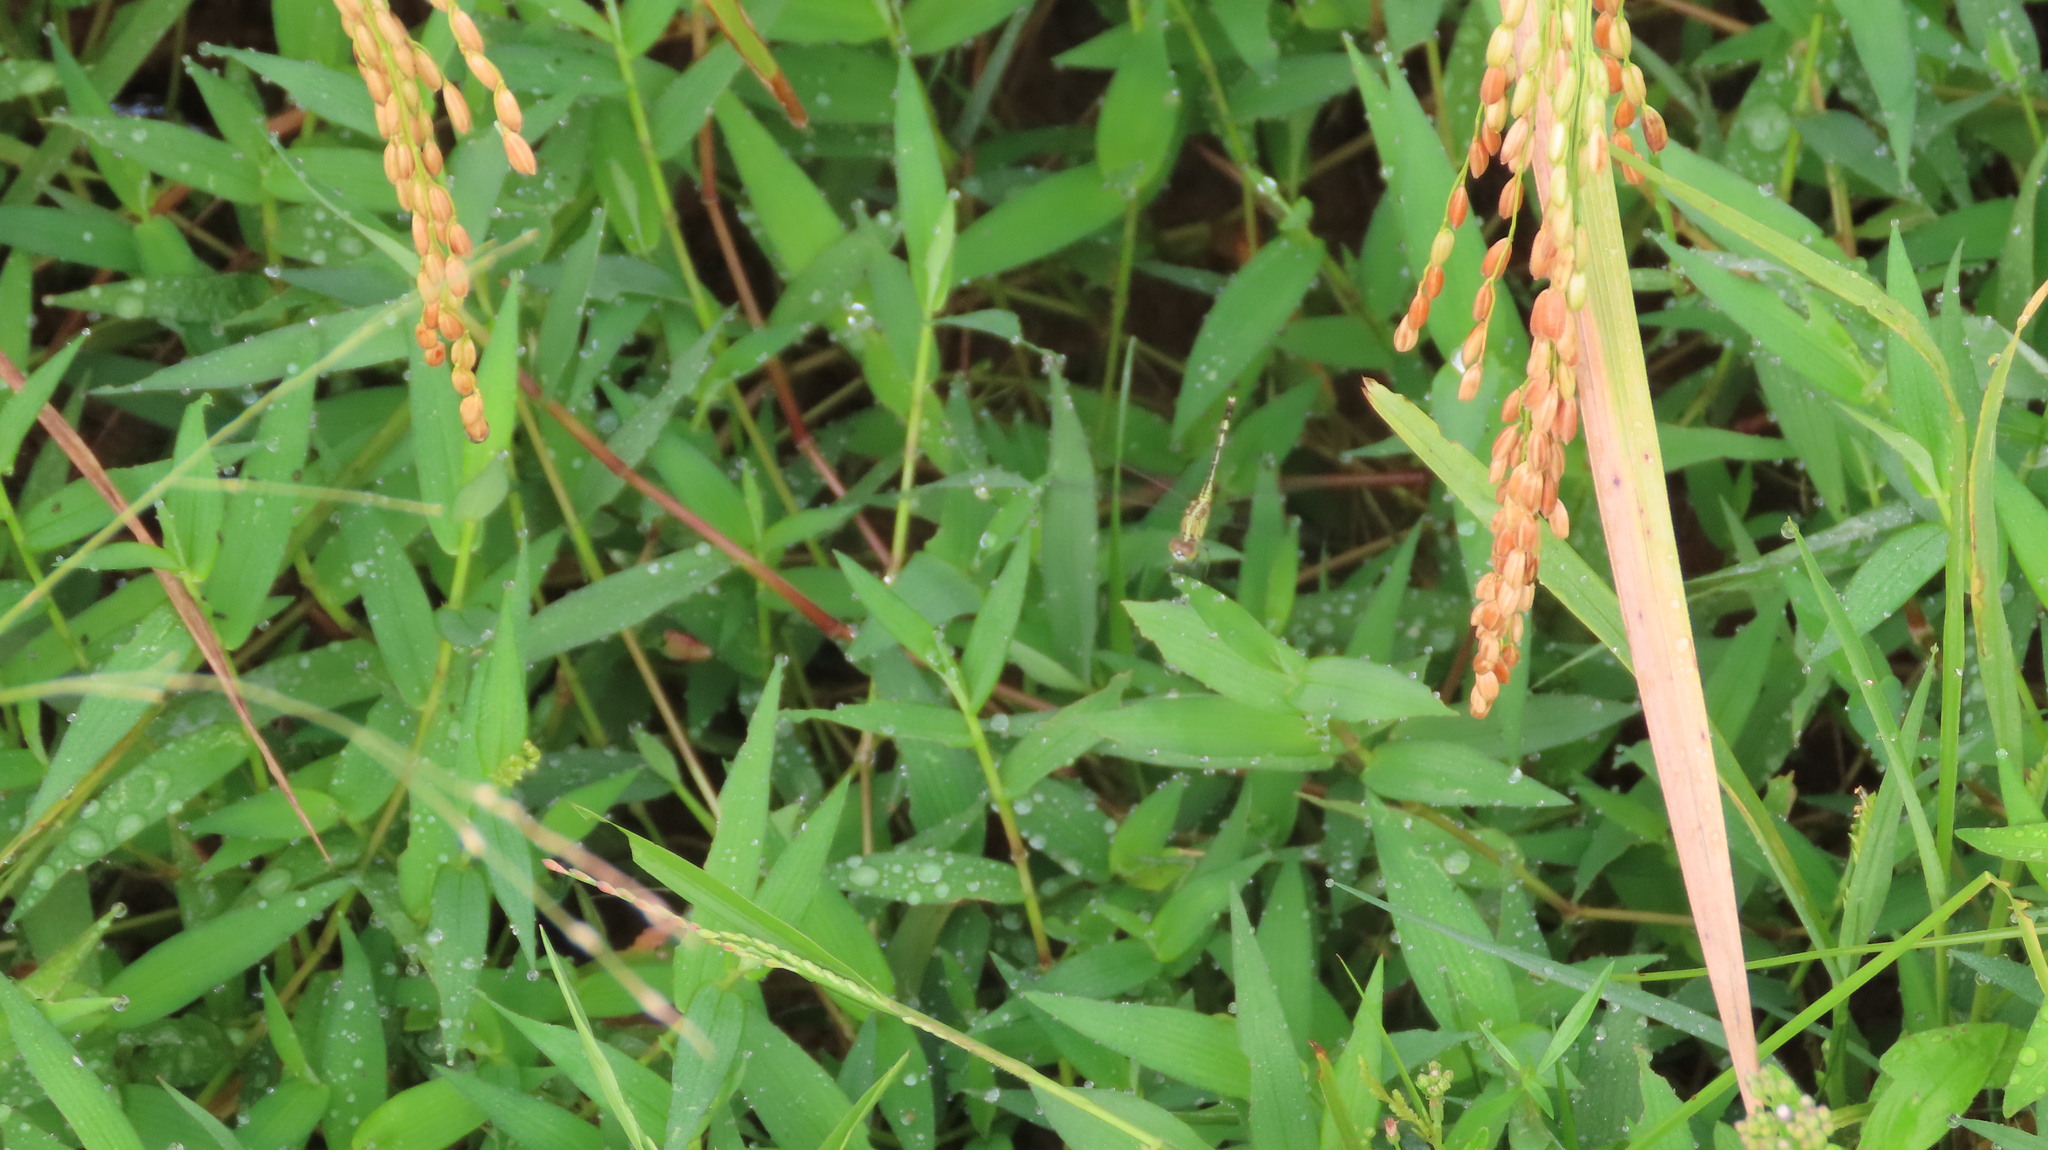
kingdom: Animalia
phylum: Arthropoda
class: Insecta
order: Odonata
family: Libellulidae
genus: Diplacodes
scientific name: Diplacodes trivialis
